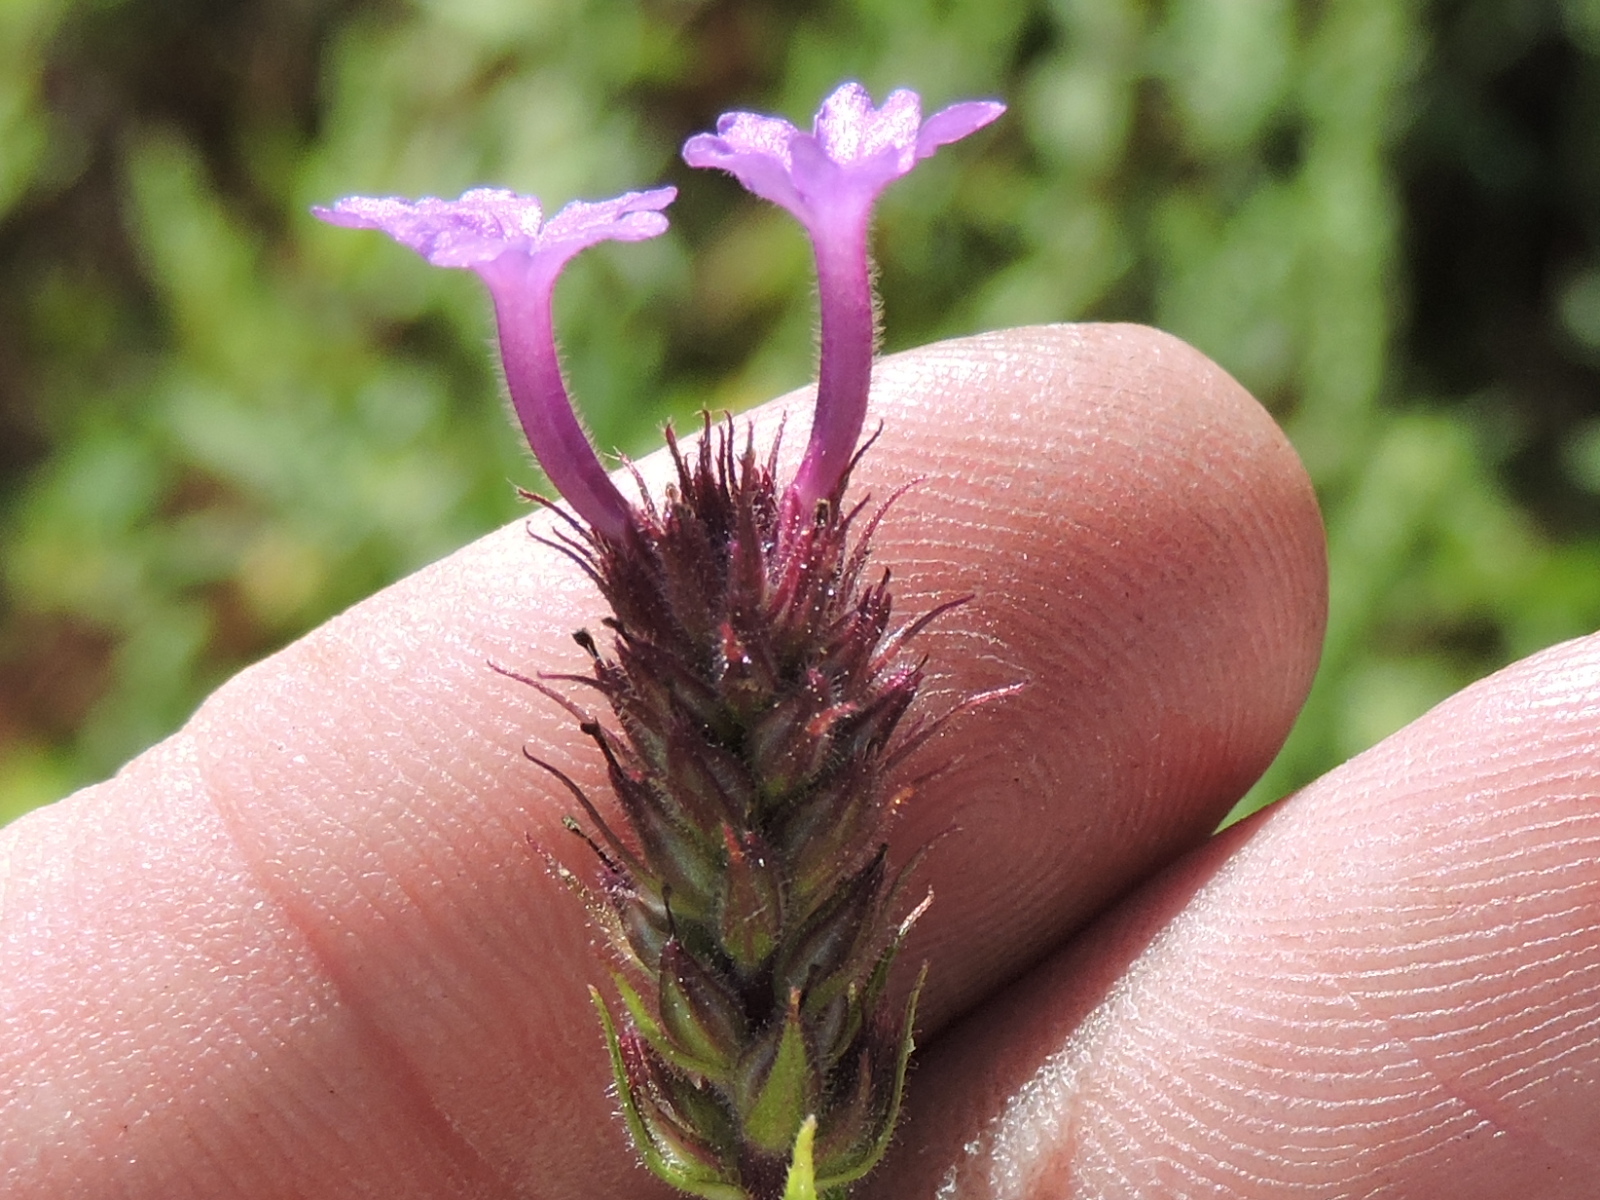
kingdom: Plantae
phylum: Tracheophyta
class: Magnoliopsida
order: Lamiales
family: Verbenaceae
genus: Verbena
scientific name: Verbena rigida
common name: Slender vervain
